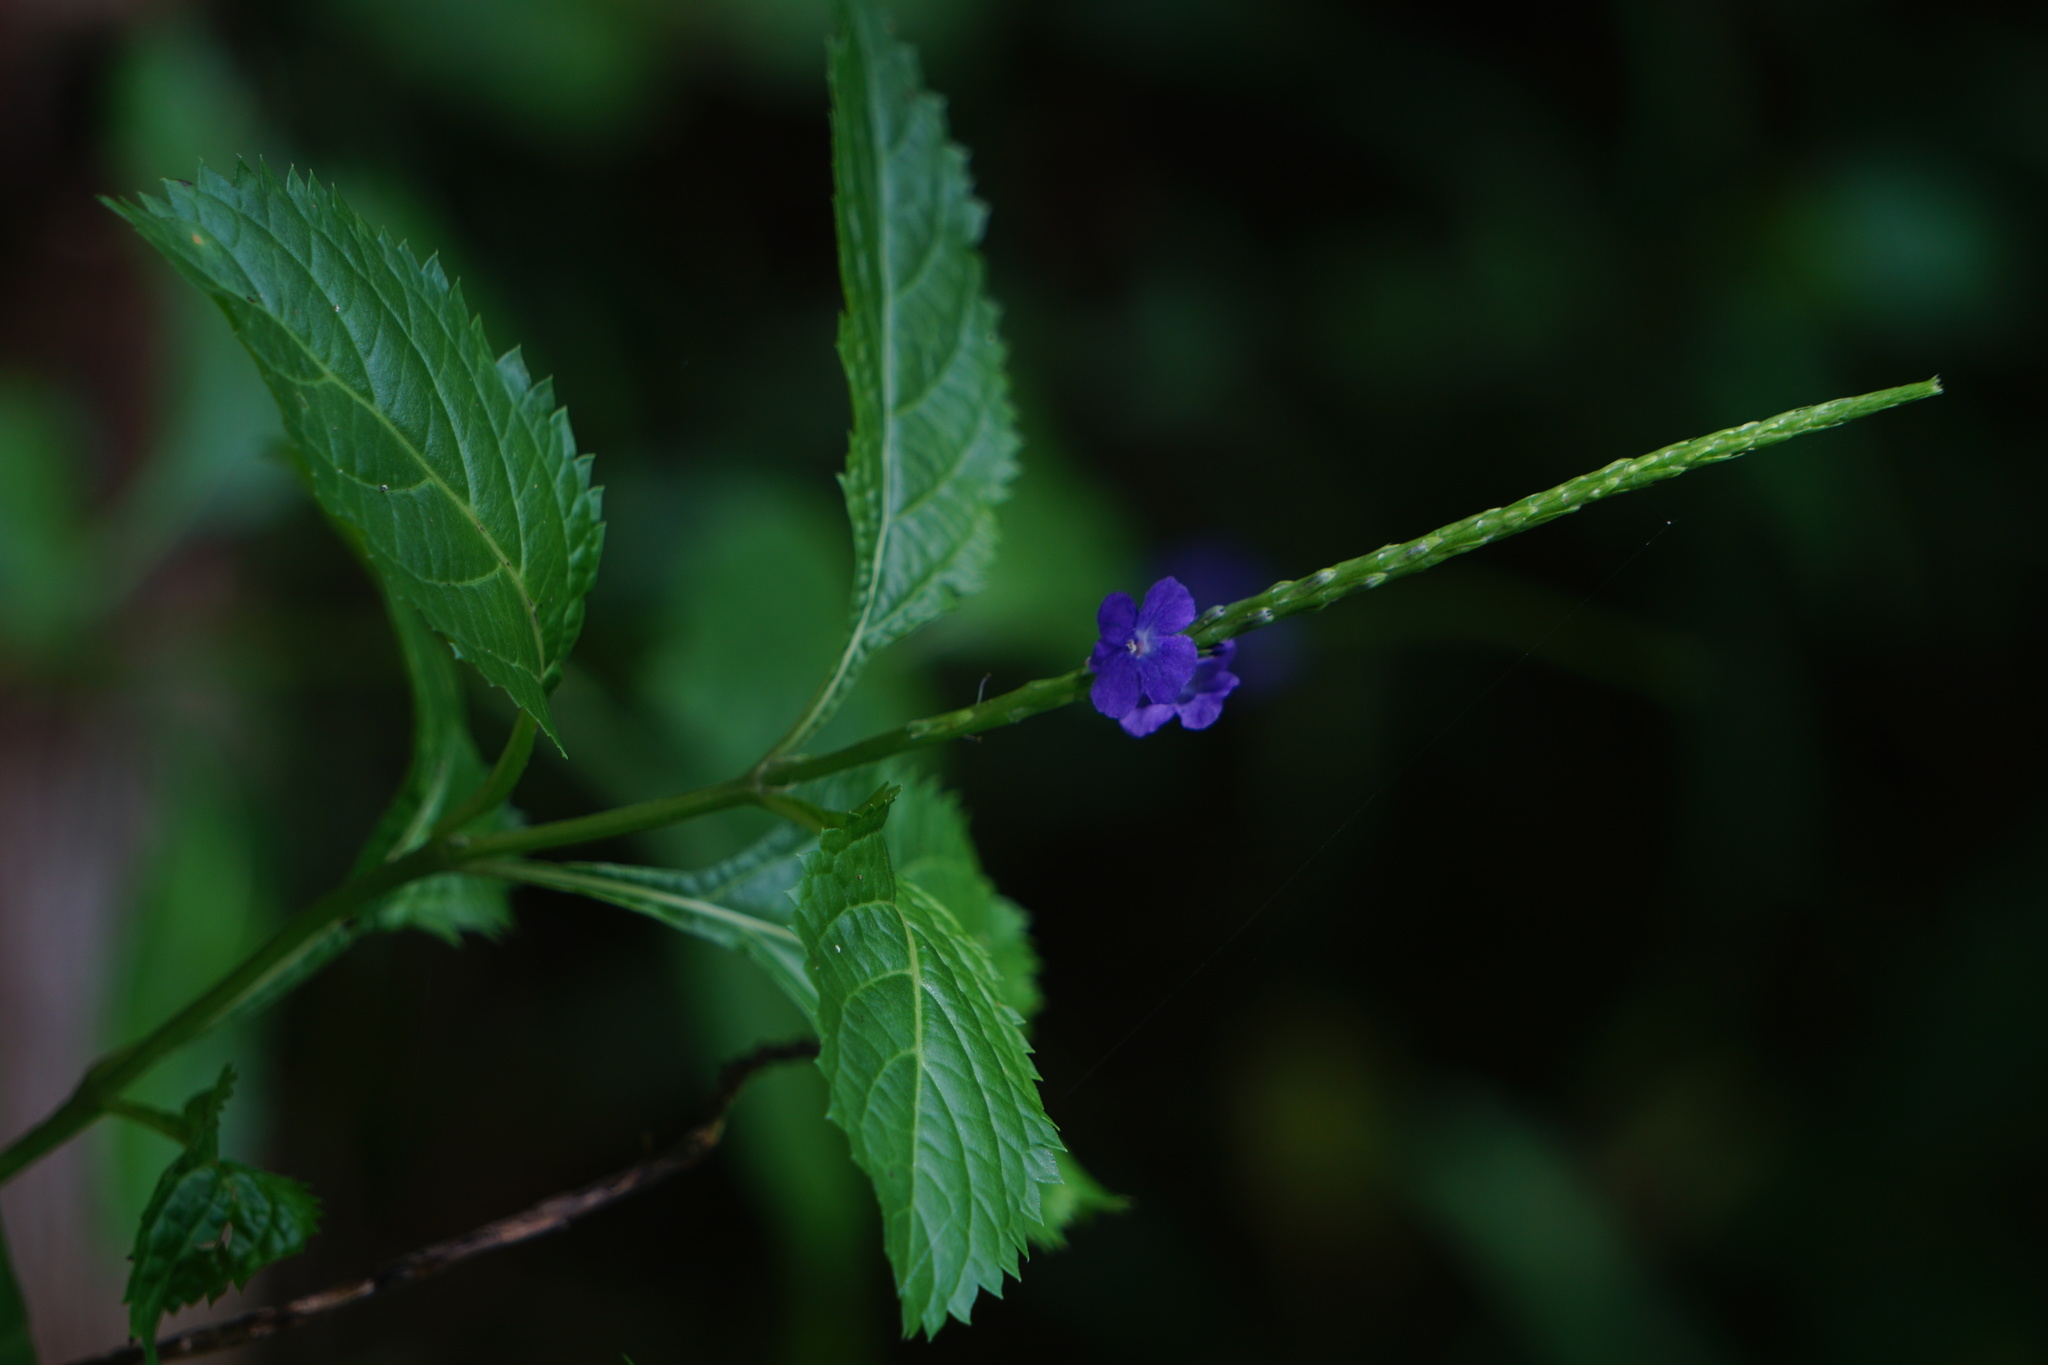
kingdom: Plantae
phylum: Tracheophyta
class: Magnoliopsida
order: Lamiales
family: Verbenaceae
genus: Stachytarpheta
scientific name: Stachytarpheta urticifolia
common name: Nettleleaf velvetberry
